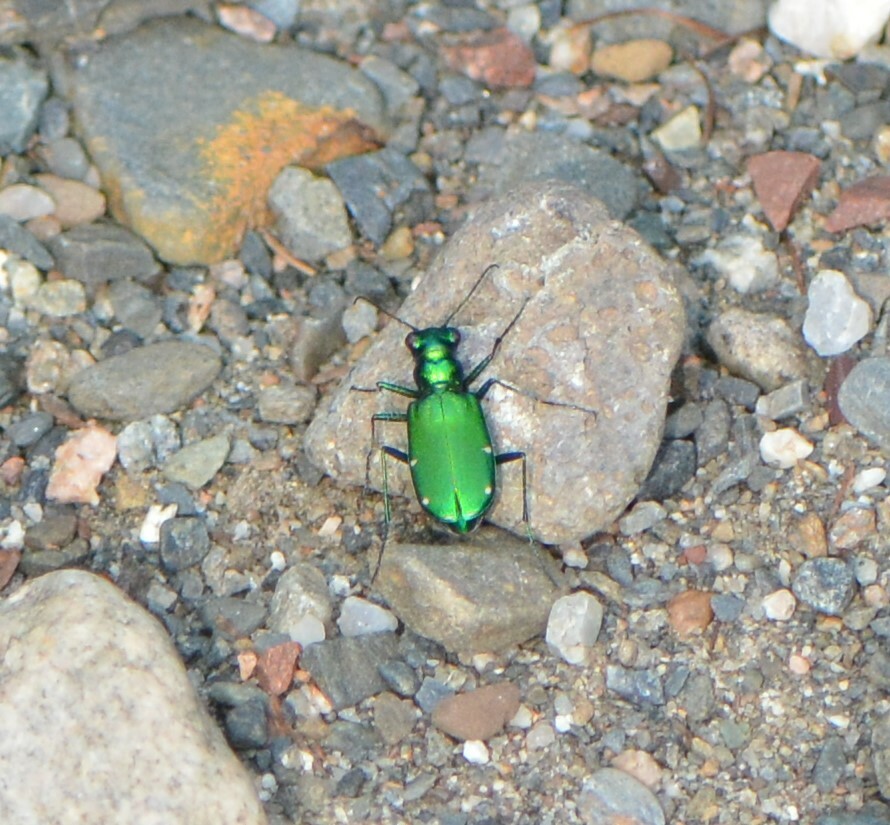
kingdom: Animalia
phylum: Arthropoda
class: Insecta
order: Coleoptera
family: Carabidae
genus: Cicindela
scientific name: Cicindela sexguttata
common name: Six-spotted tiger beetle
